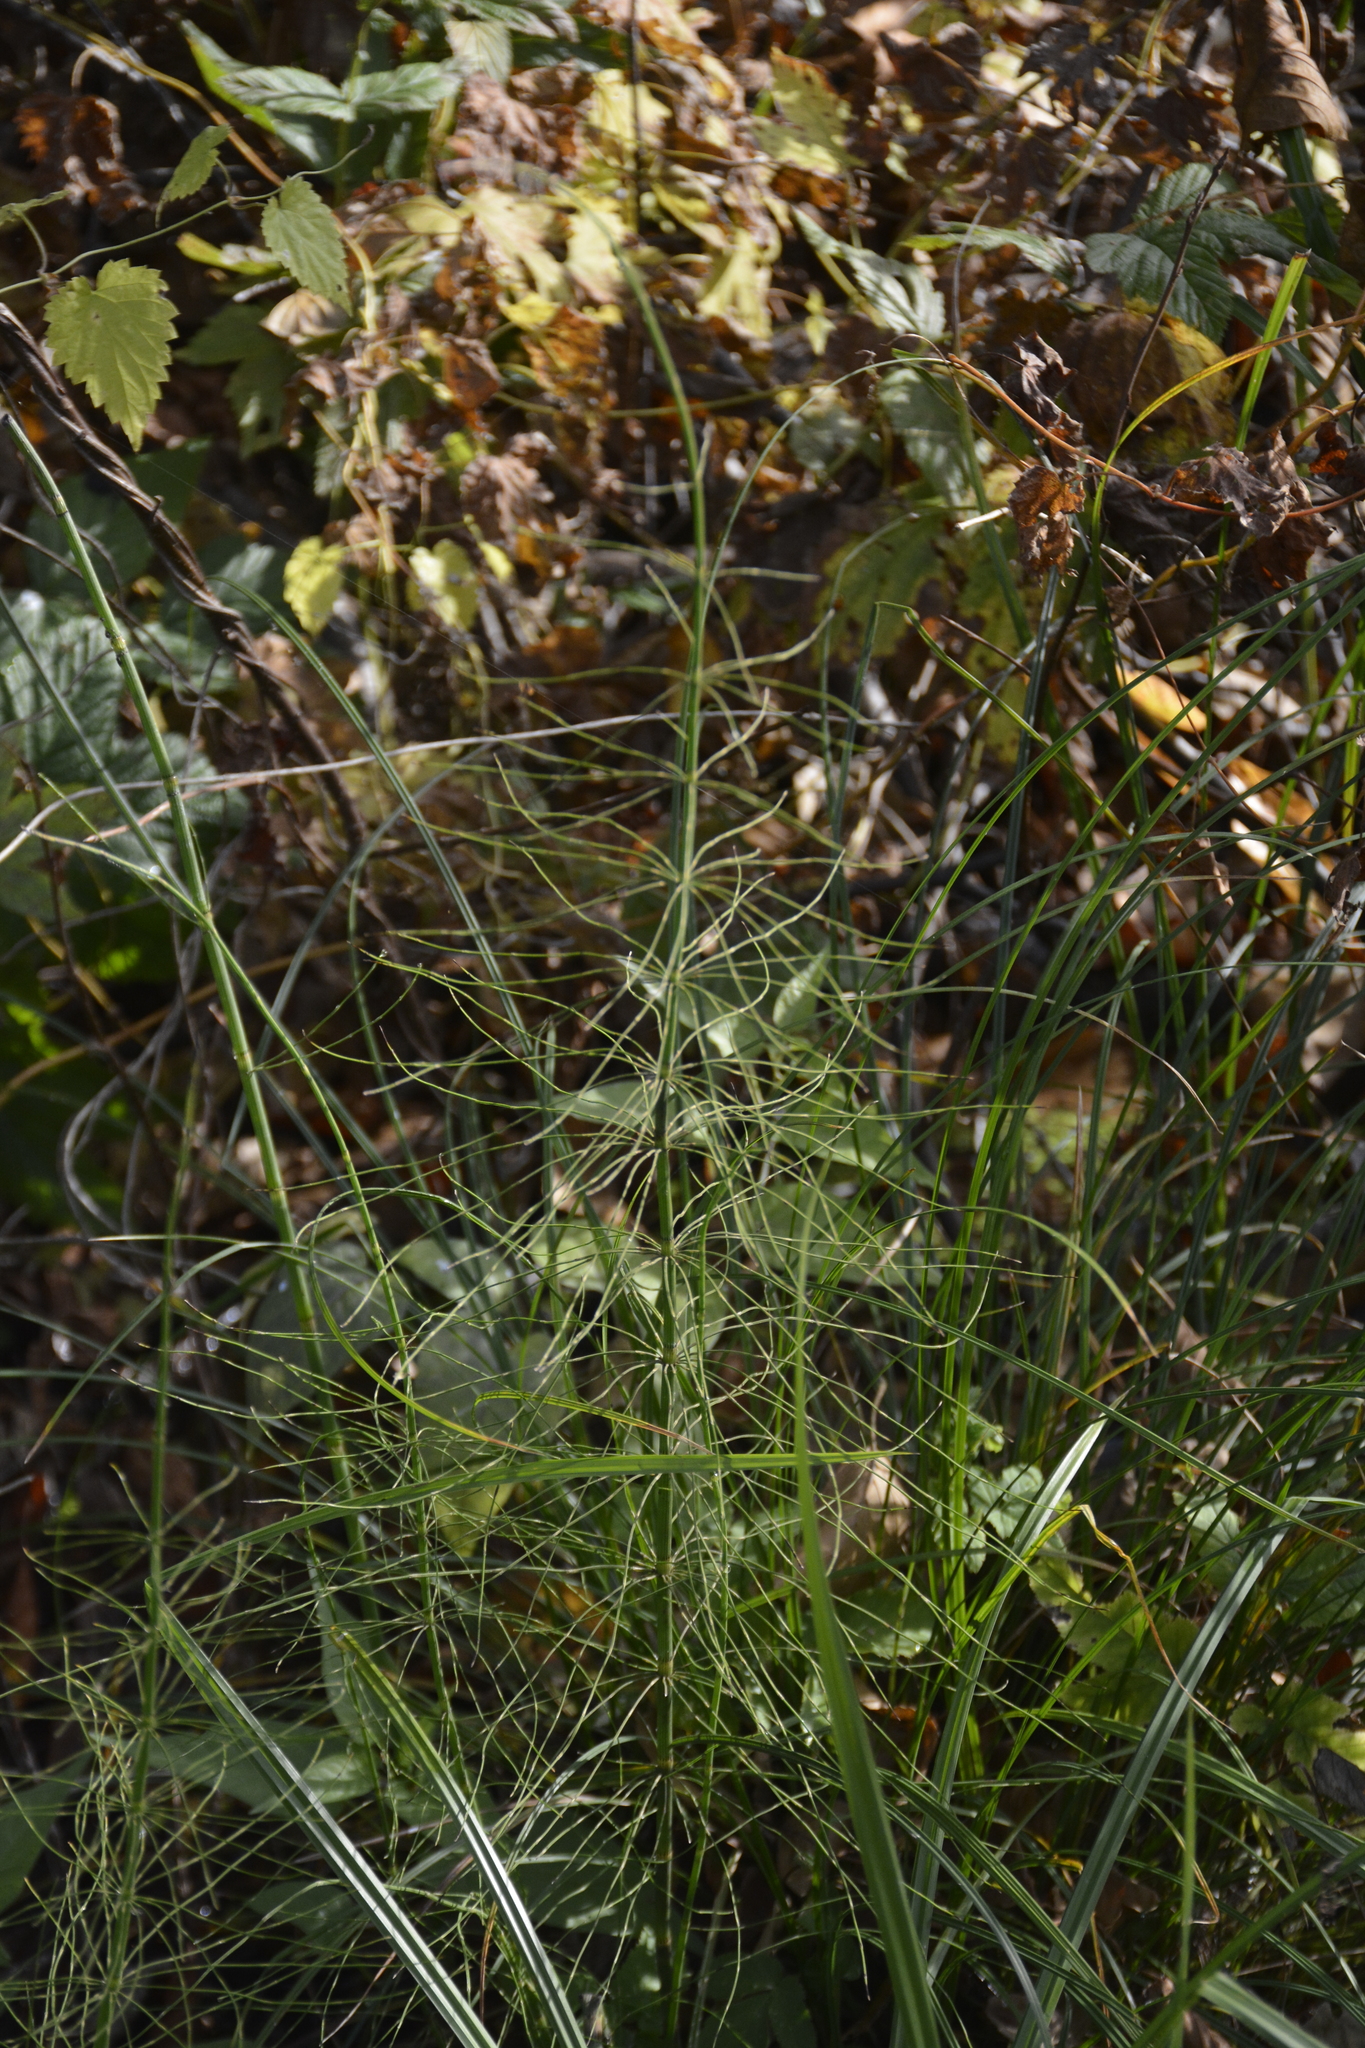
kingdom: Plantae
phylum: Tracheophyta
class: Polypodiopsida
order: Equisetales
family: Equisetaceae
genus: Equisetum
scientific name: Equisetum fluviatile
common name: Water horsetail
